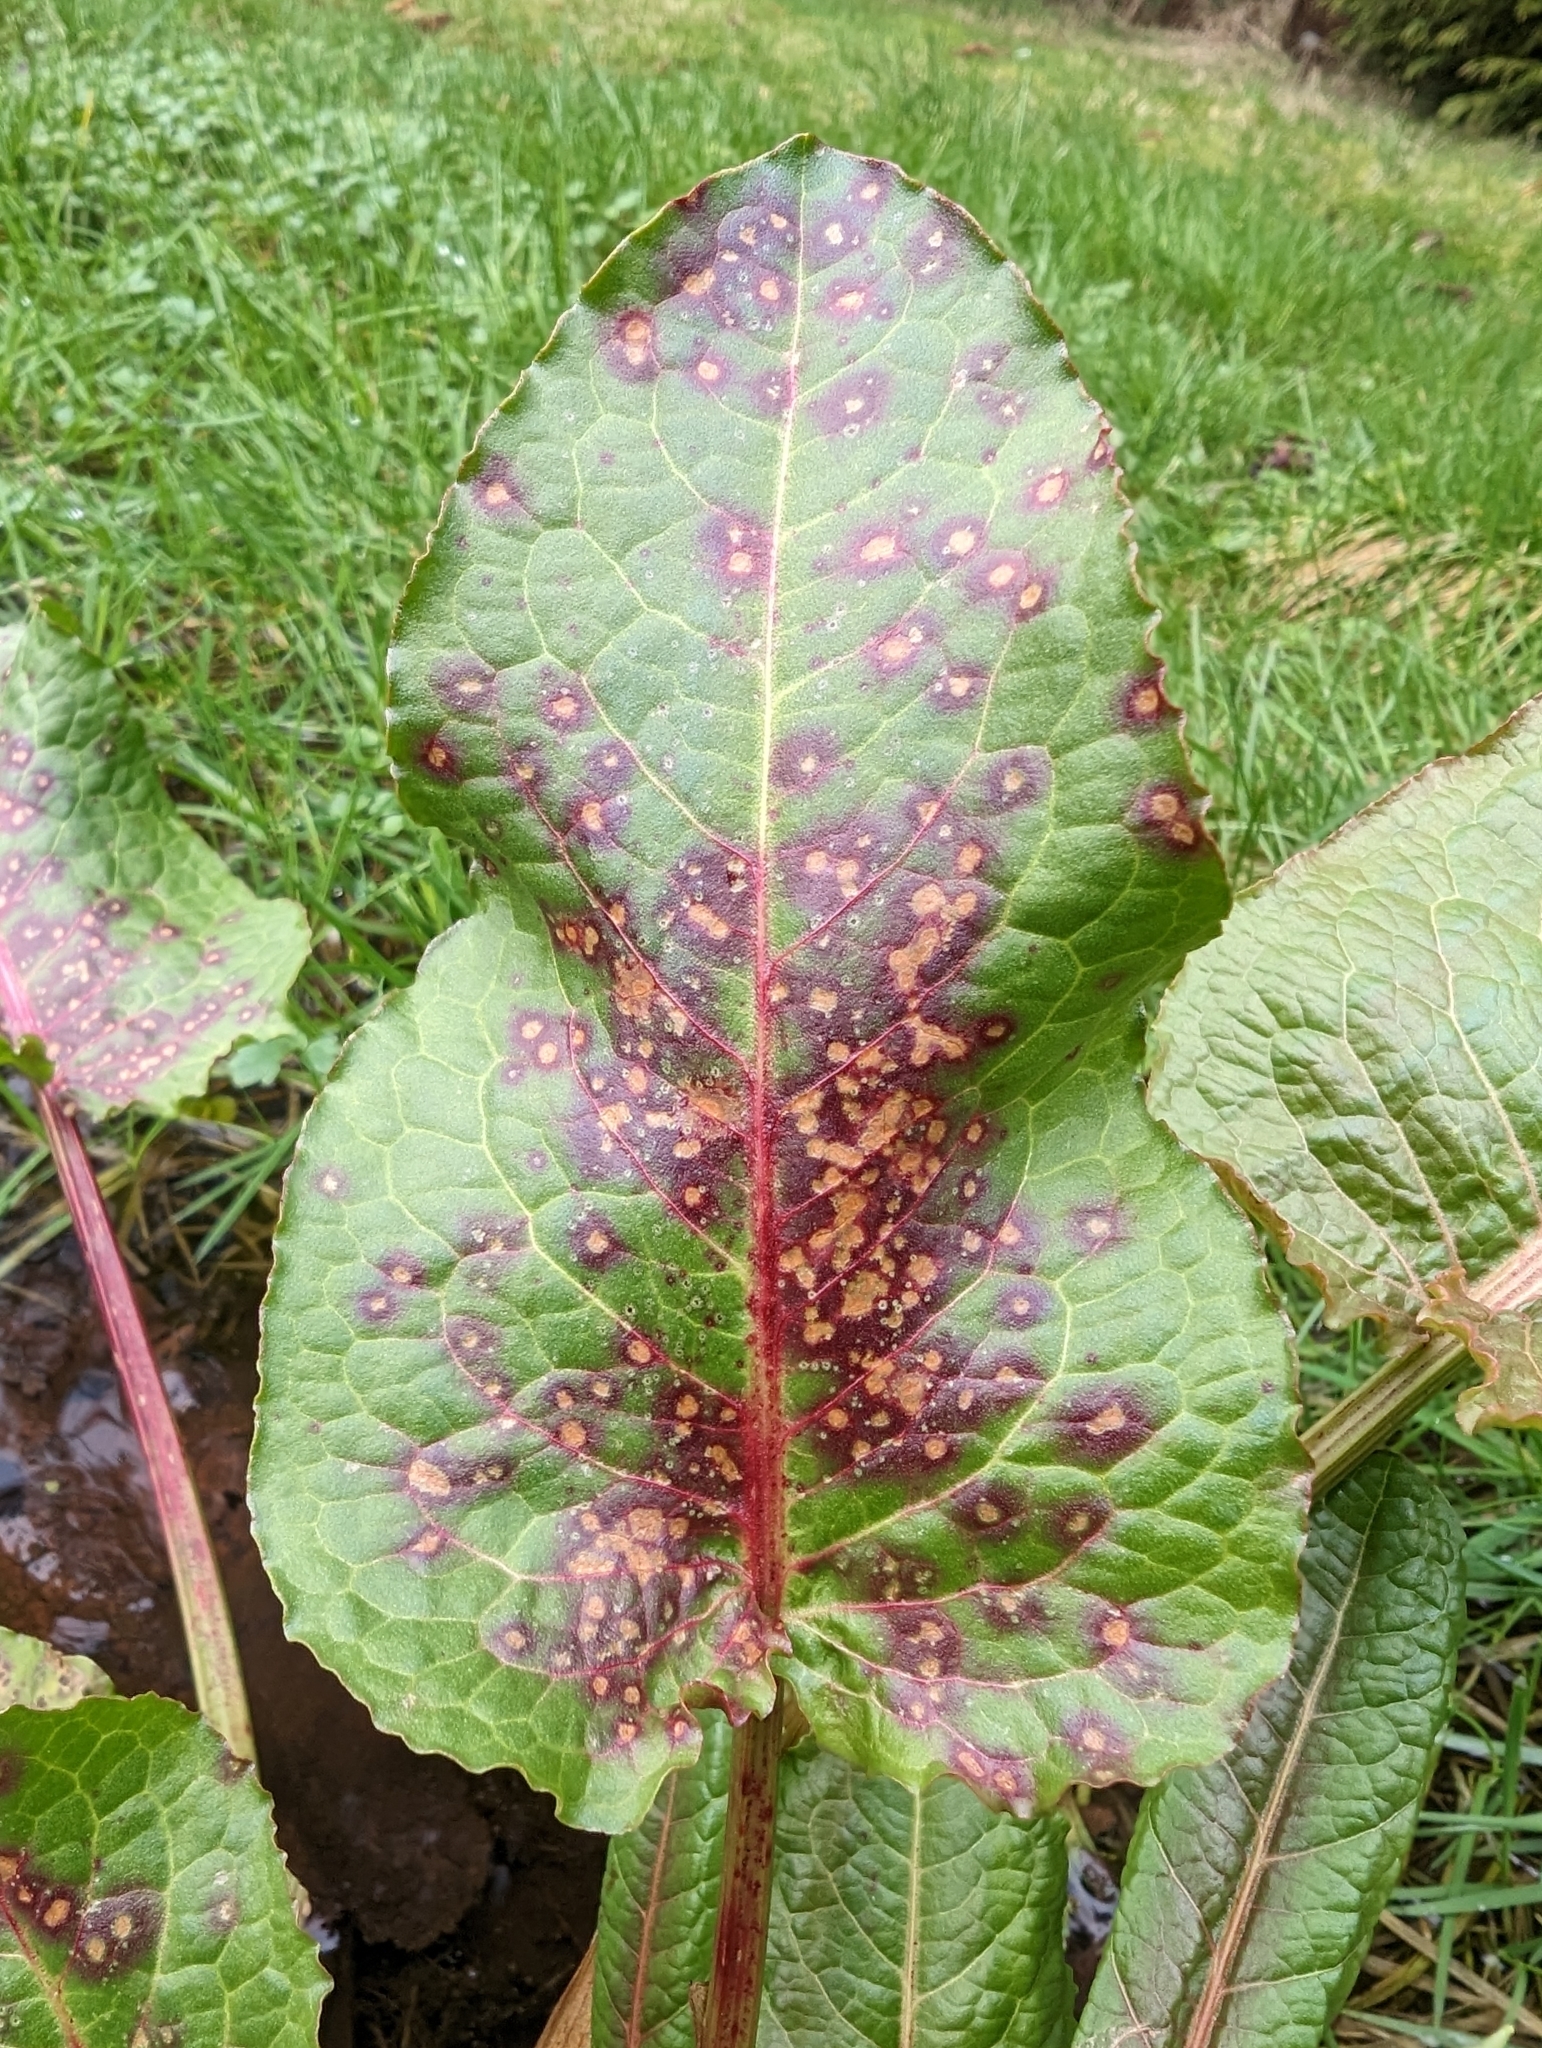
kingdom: Fungi
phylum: Ascomycota
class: Dothideomycetes
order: Mycosphaerellales
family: Mycosphaerellaceae
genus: Ramularia
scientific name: Ramularia rubella
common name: Red dock spot
